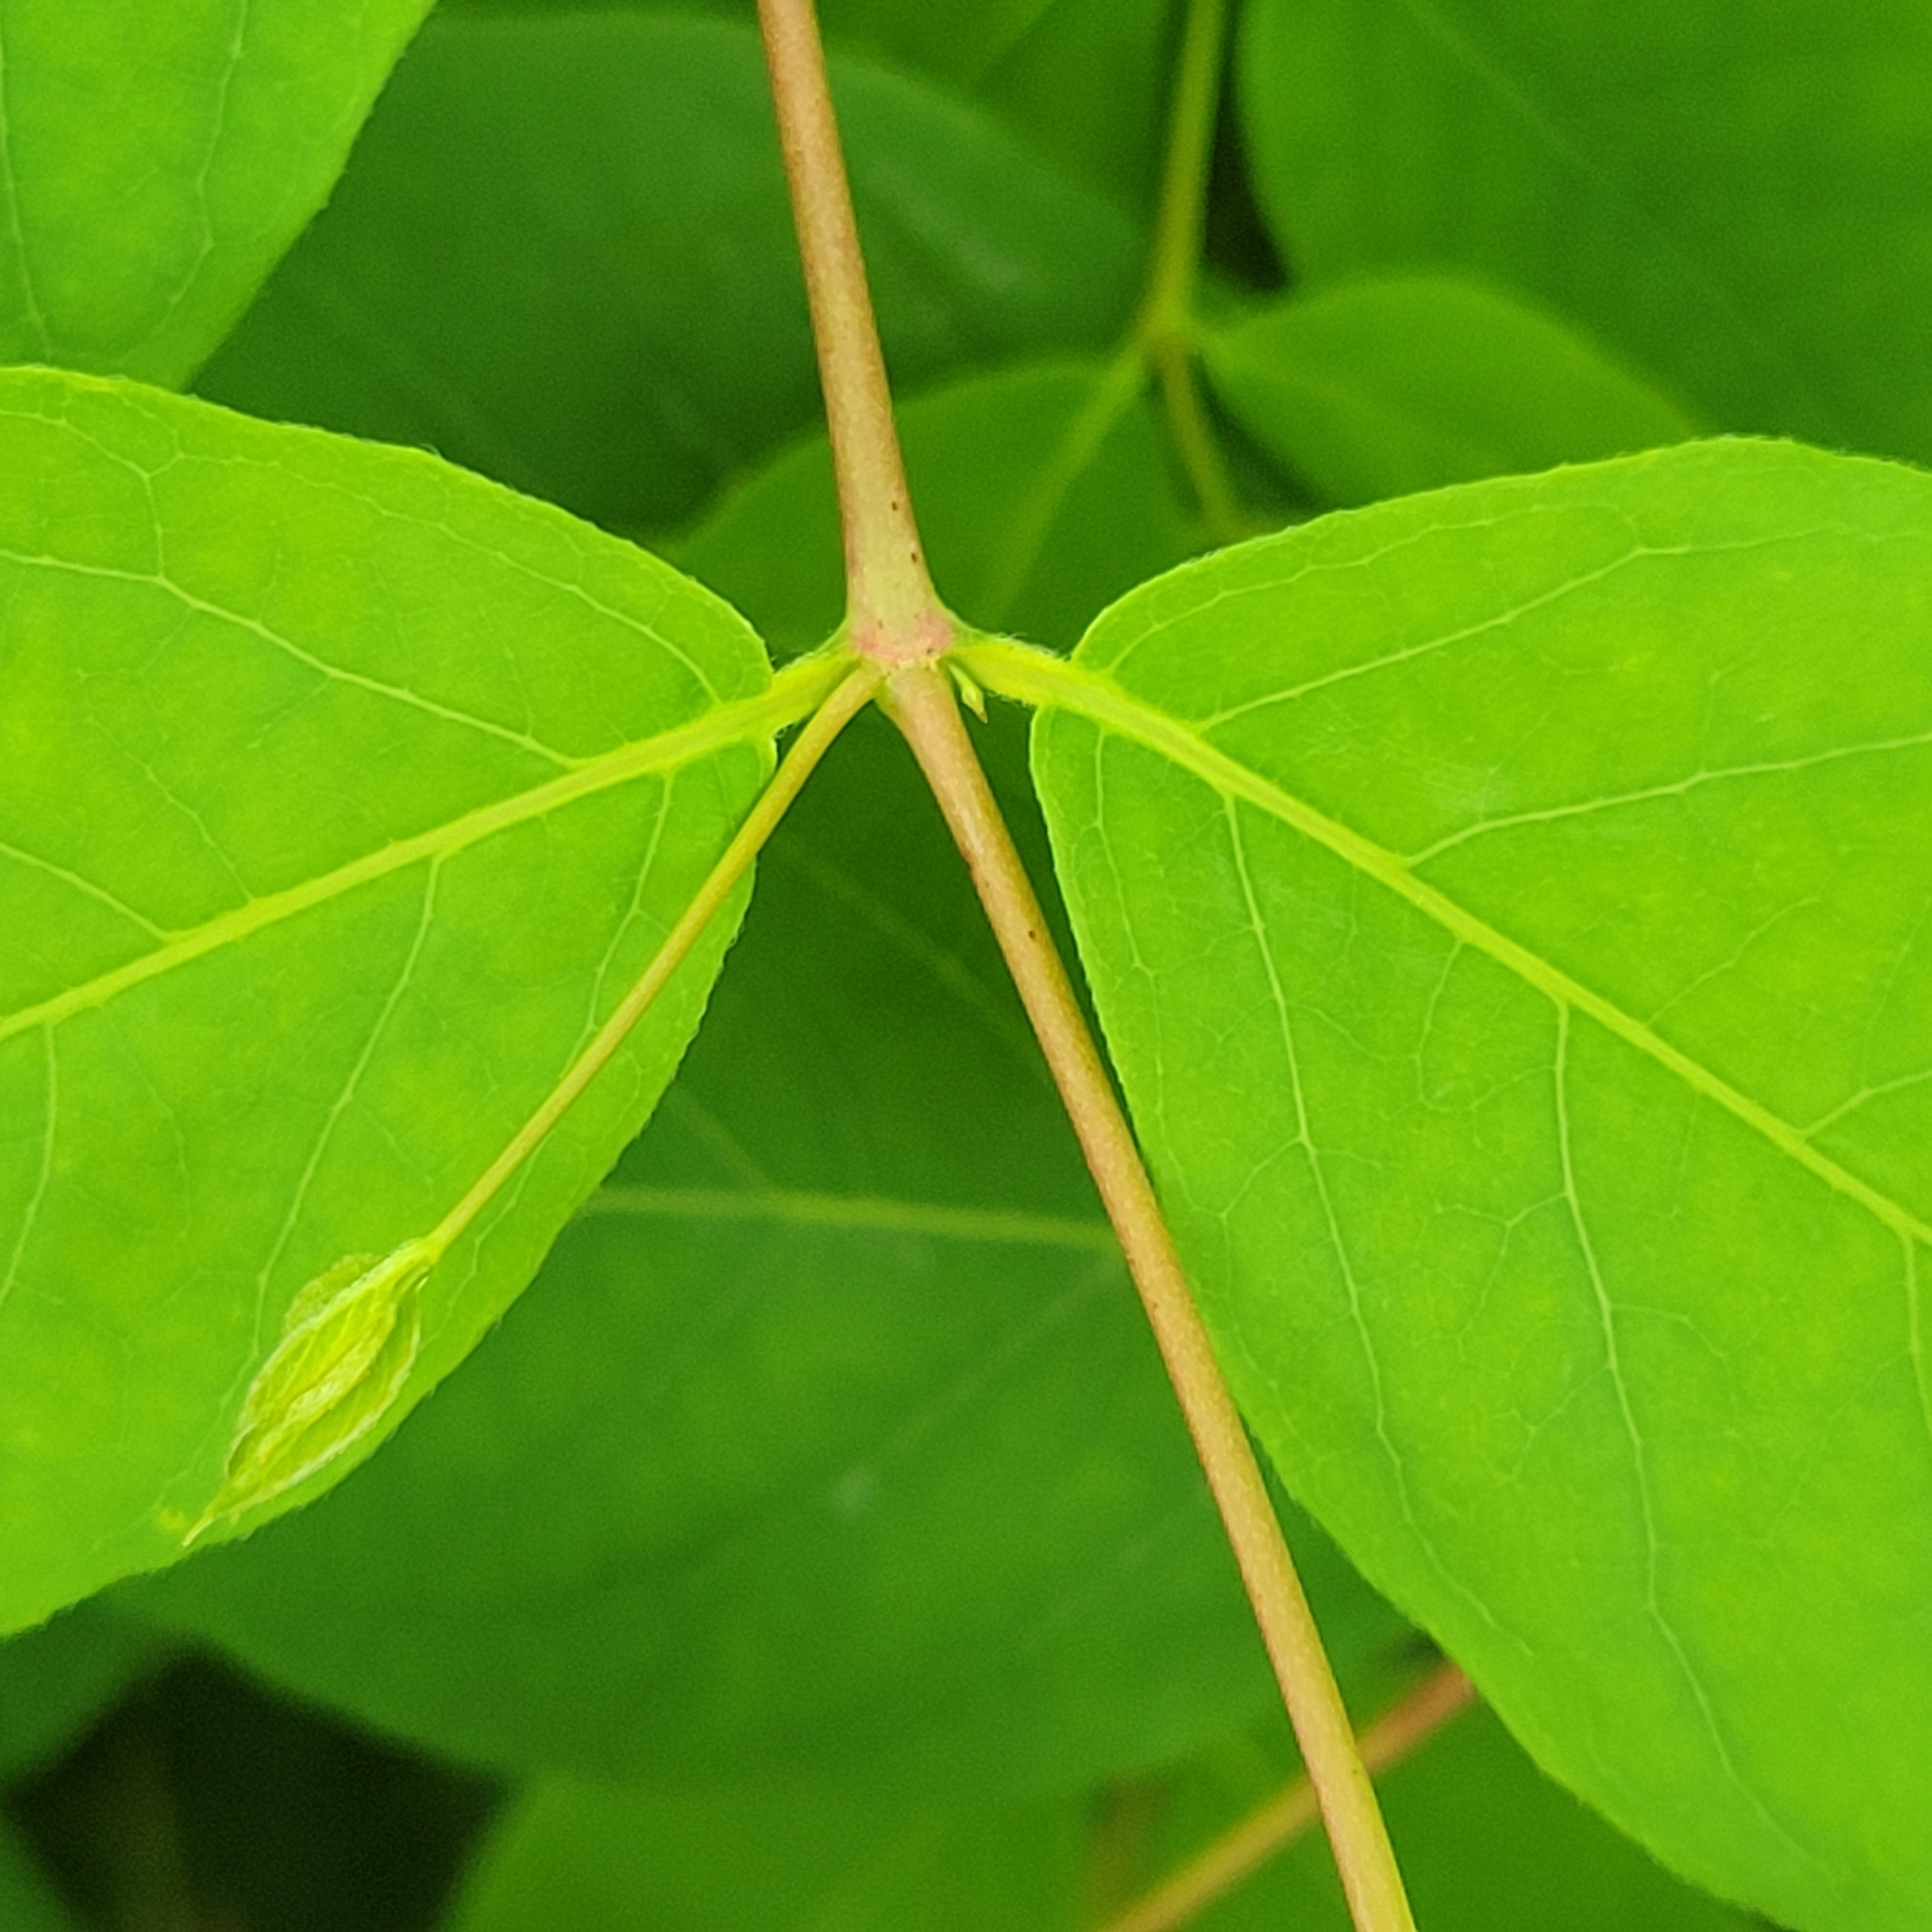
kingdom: Plantae
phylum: Tracheophyta
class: Magnoliopsida
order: Gentianales
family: Apocynaceae
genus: Apocynum
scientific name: Apocynum androsaemifolium
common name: Spreading dogbane
